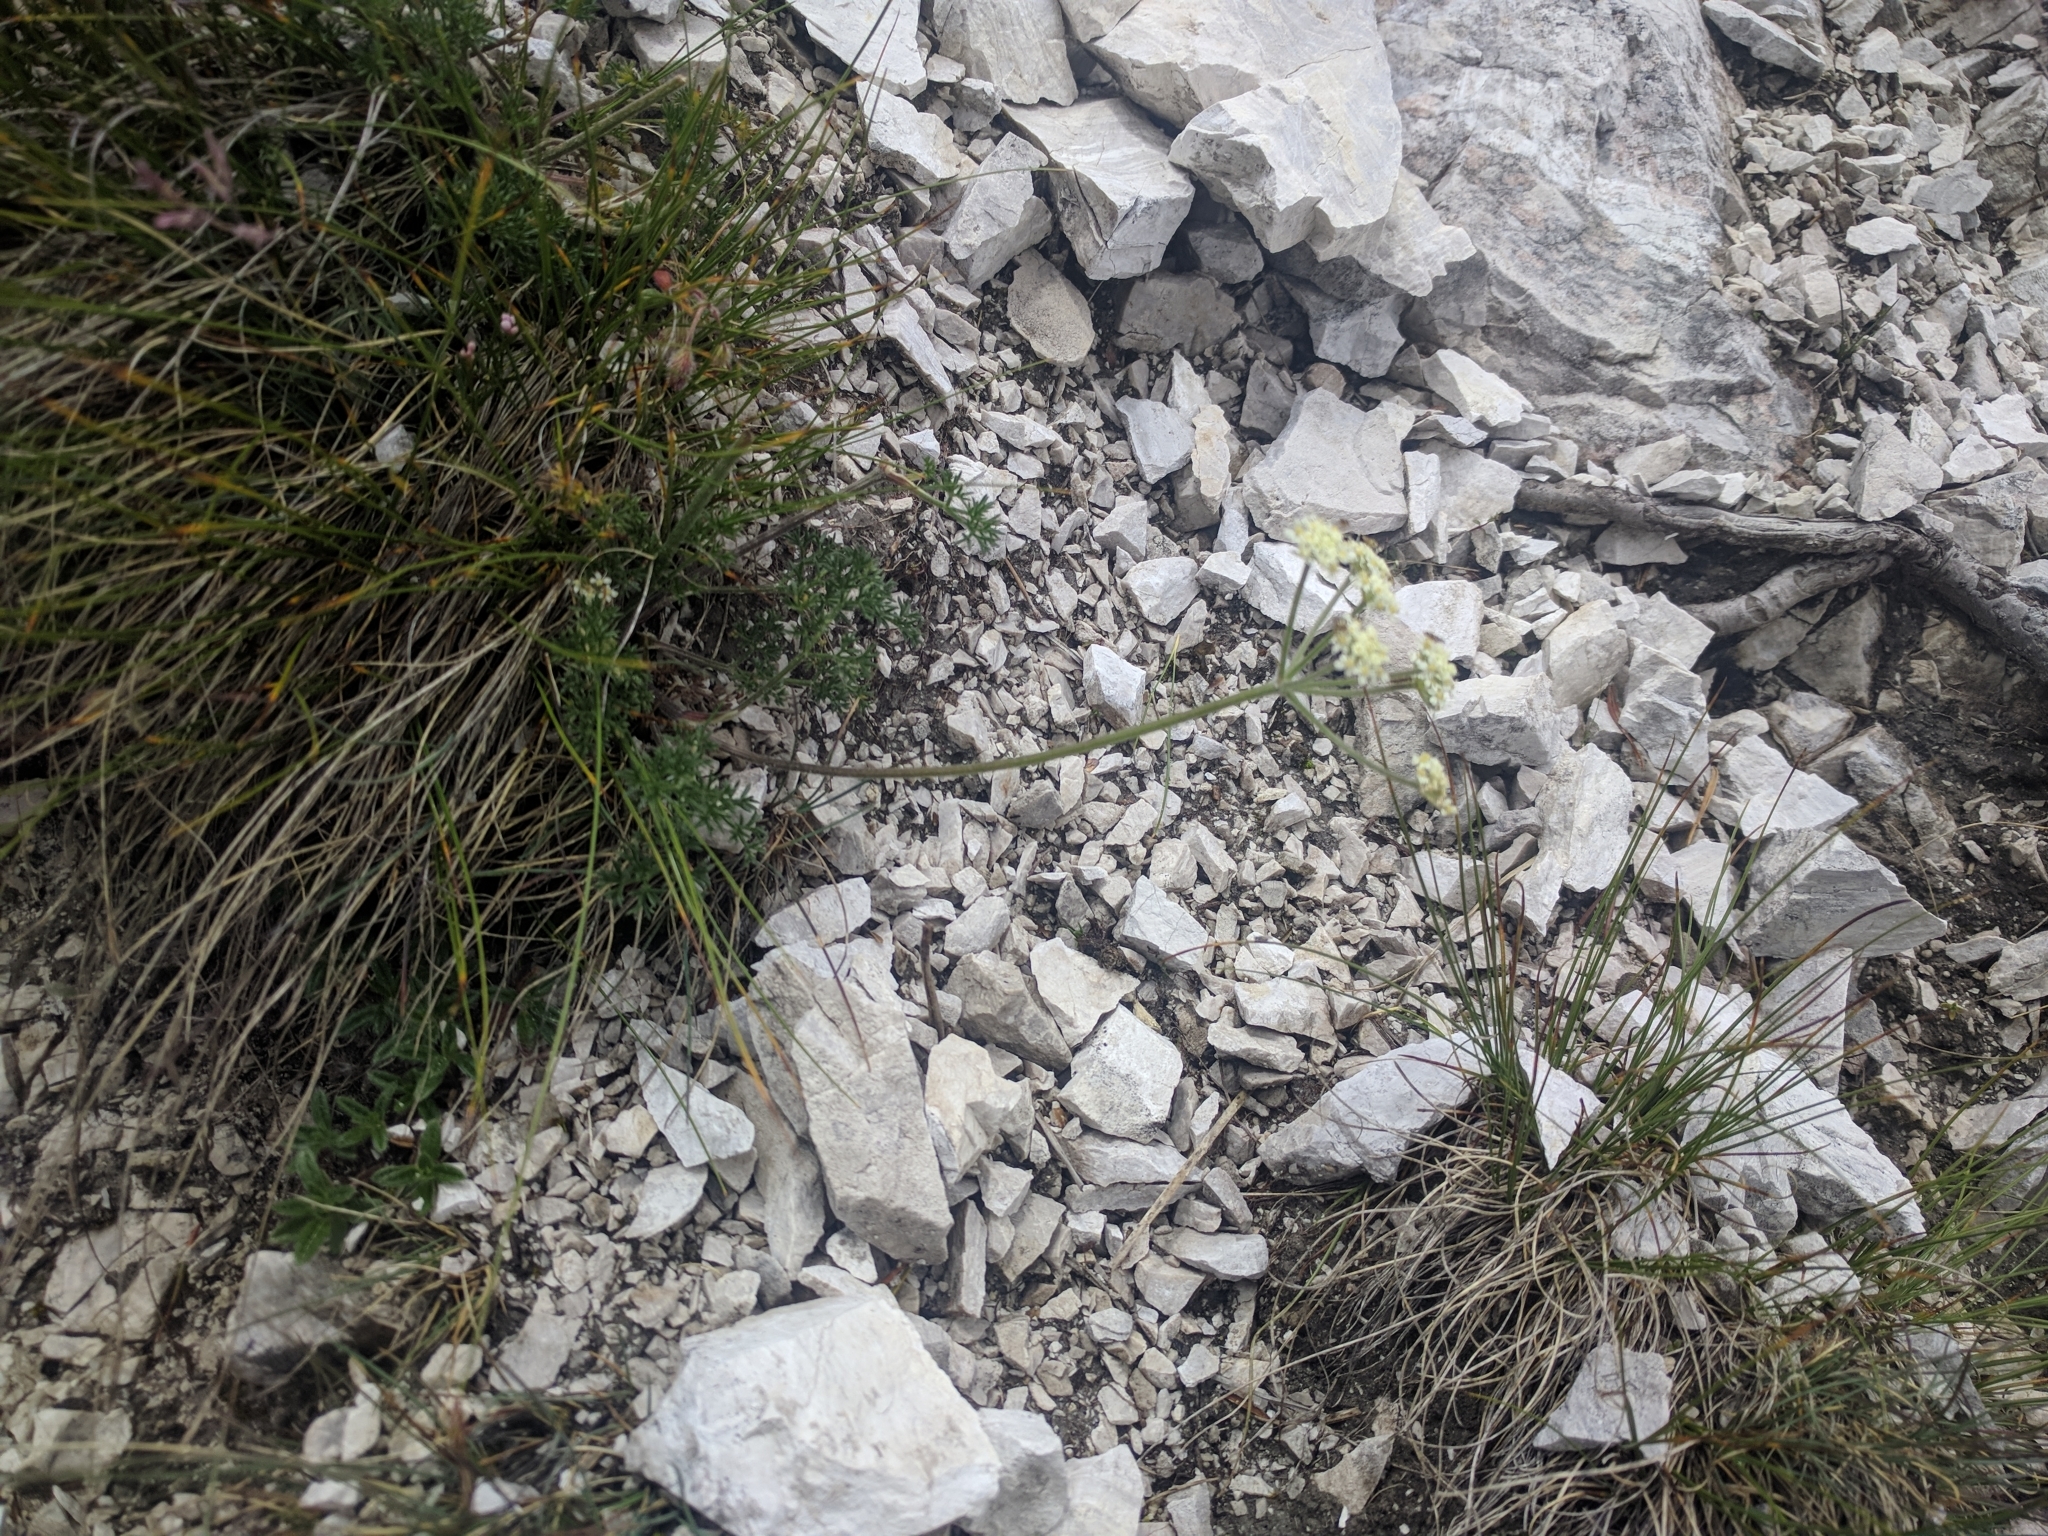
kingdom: Plantae
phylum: Tracheophyta
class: Magnoliopsida
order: Apiales
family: Apiaceae
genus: Athamanta
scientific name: Athamanta cretensis
